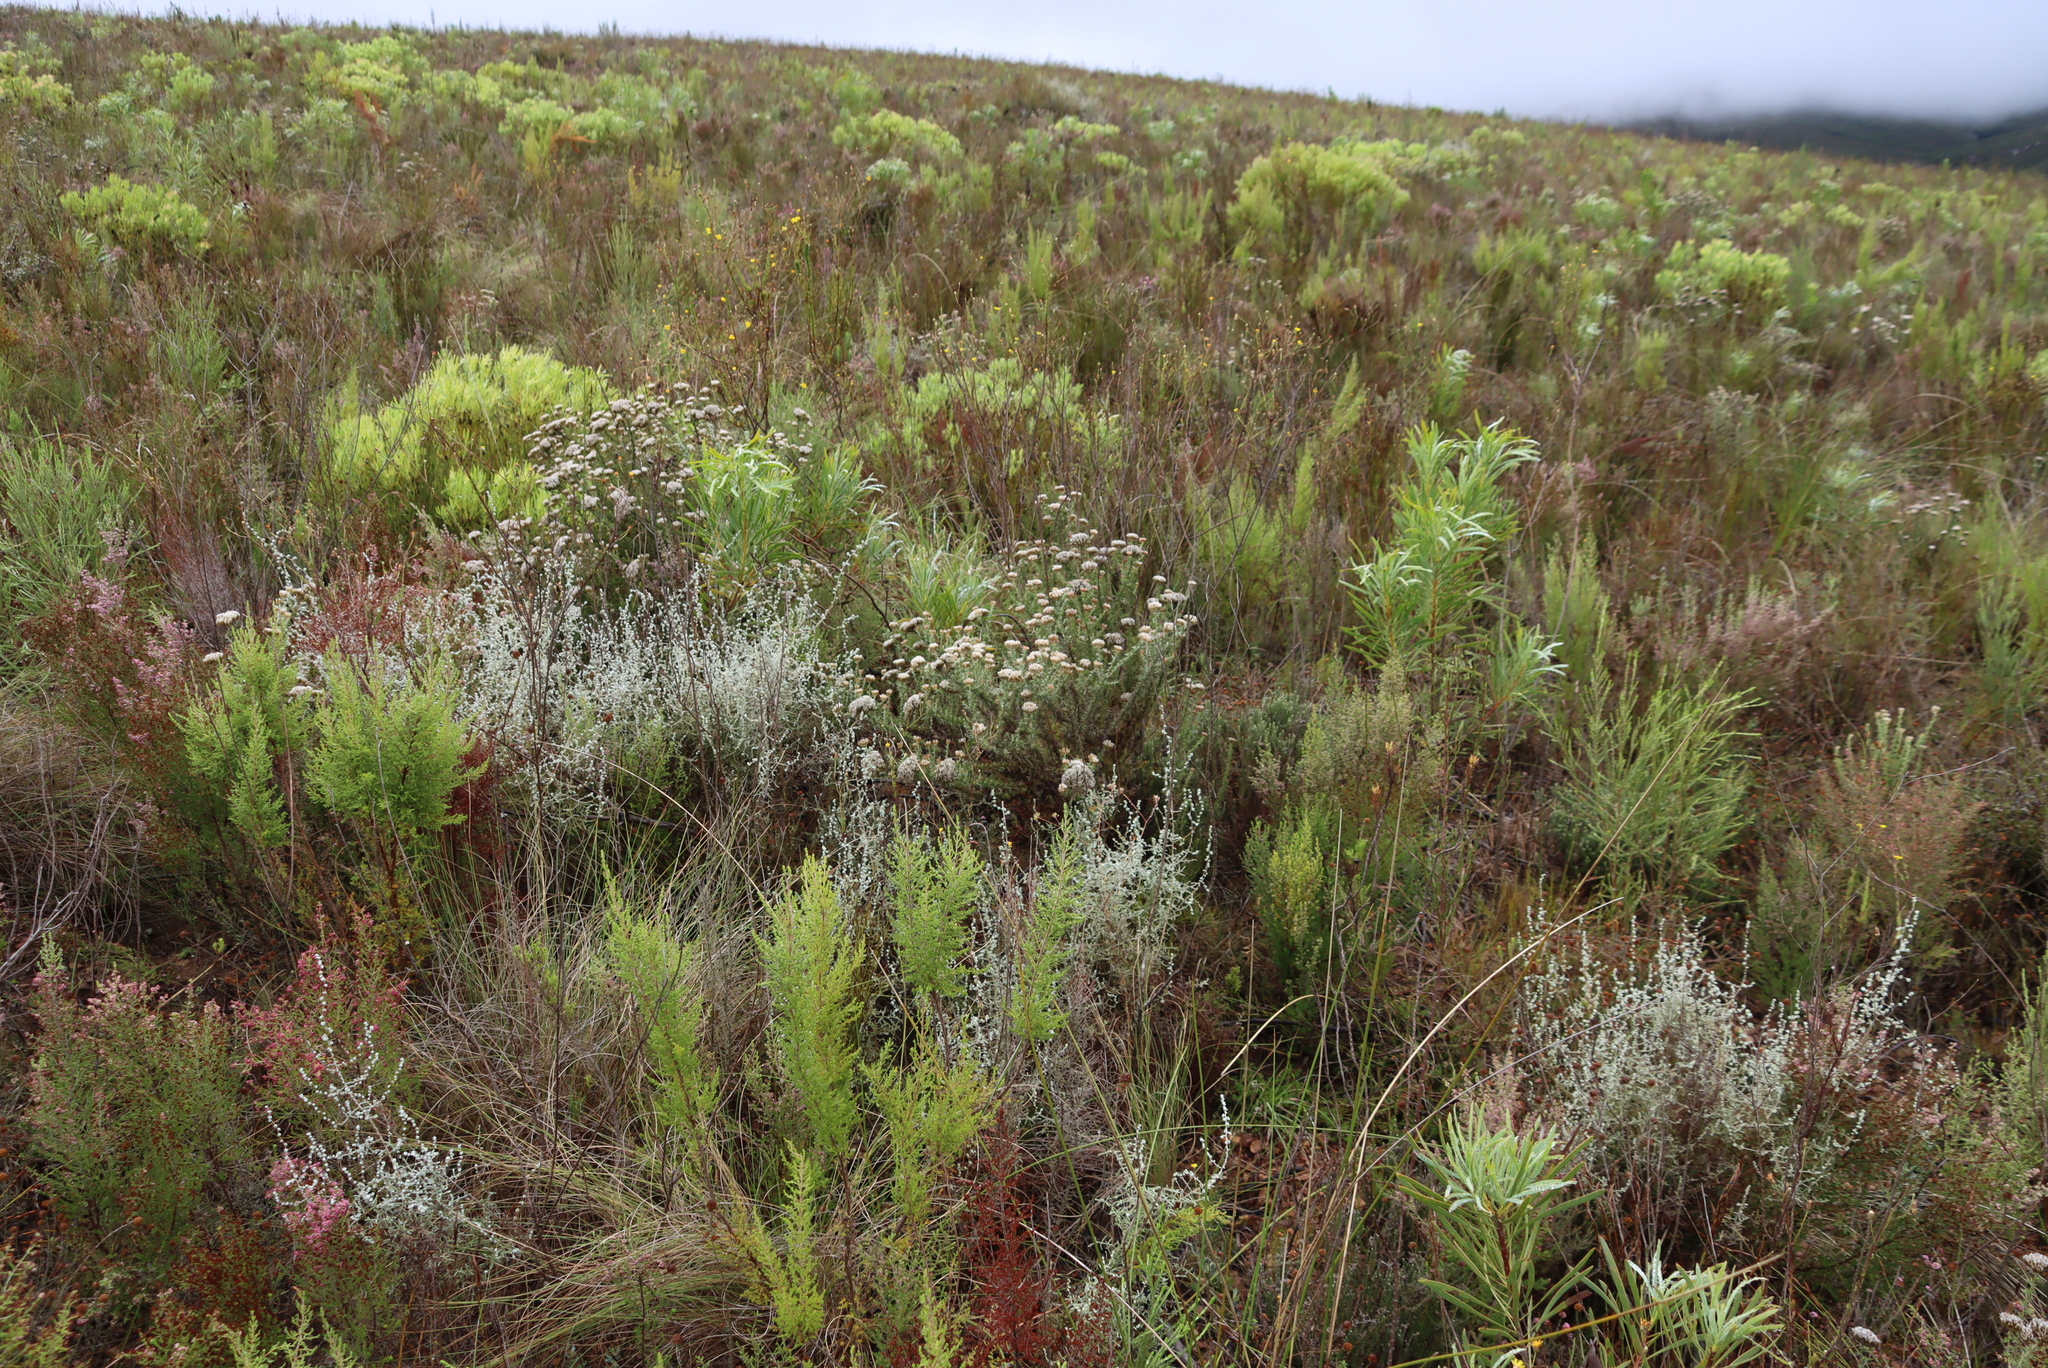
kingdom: Plantae
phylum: Tracheophyta
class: Magnoliopsida
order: Proteales
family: Proteaceae
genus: Protea
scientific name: Protea repens
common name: Sugarbush
